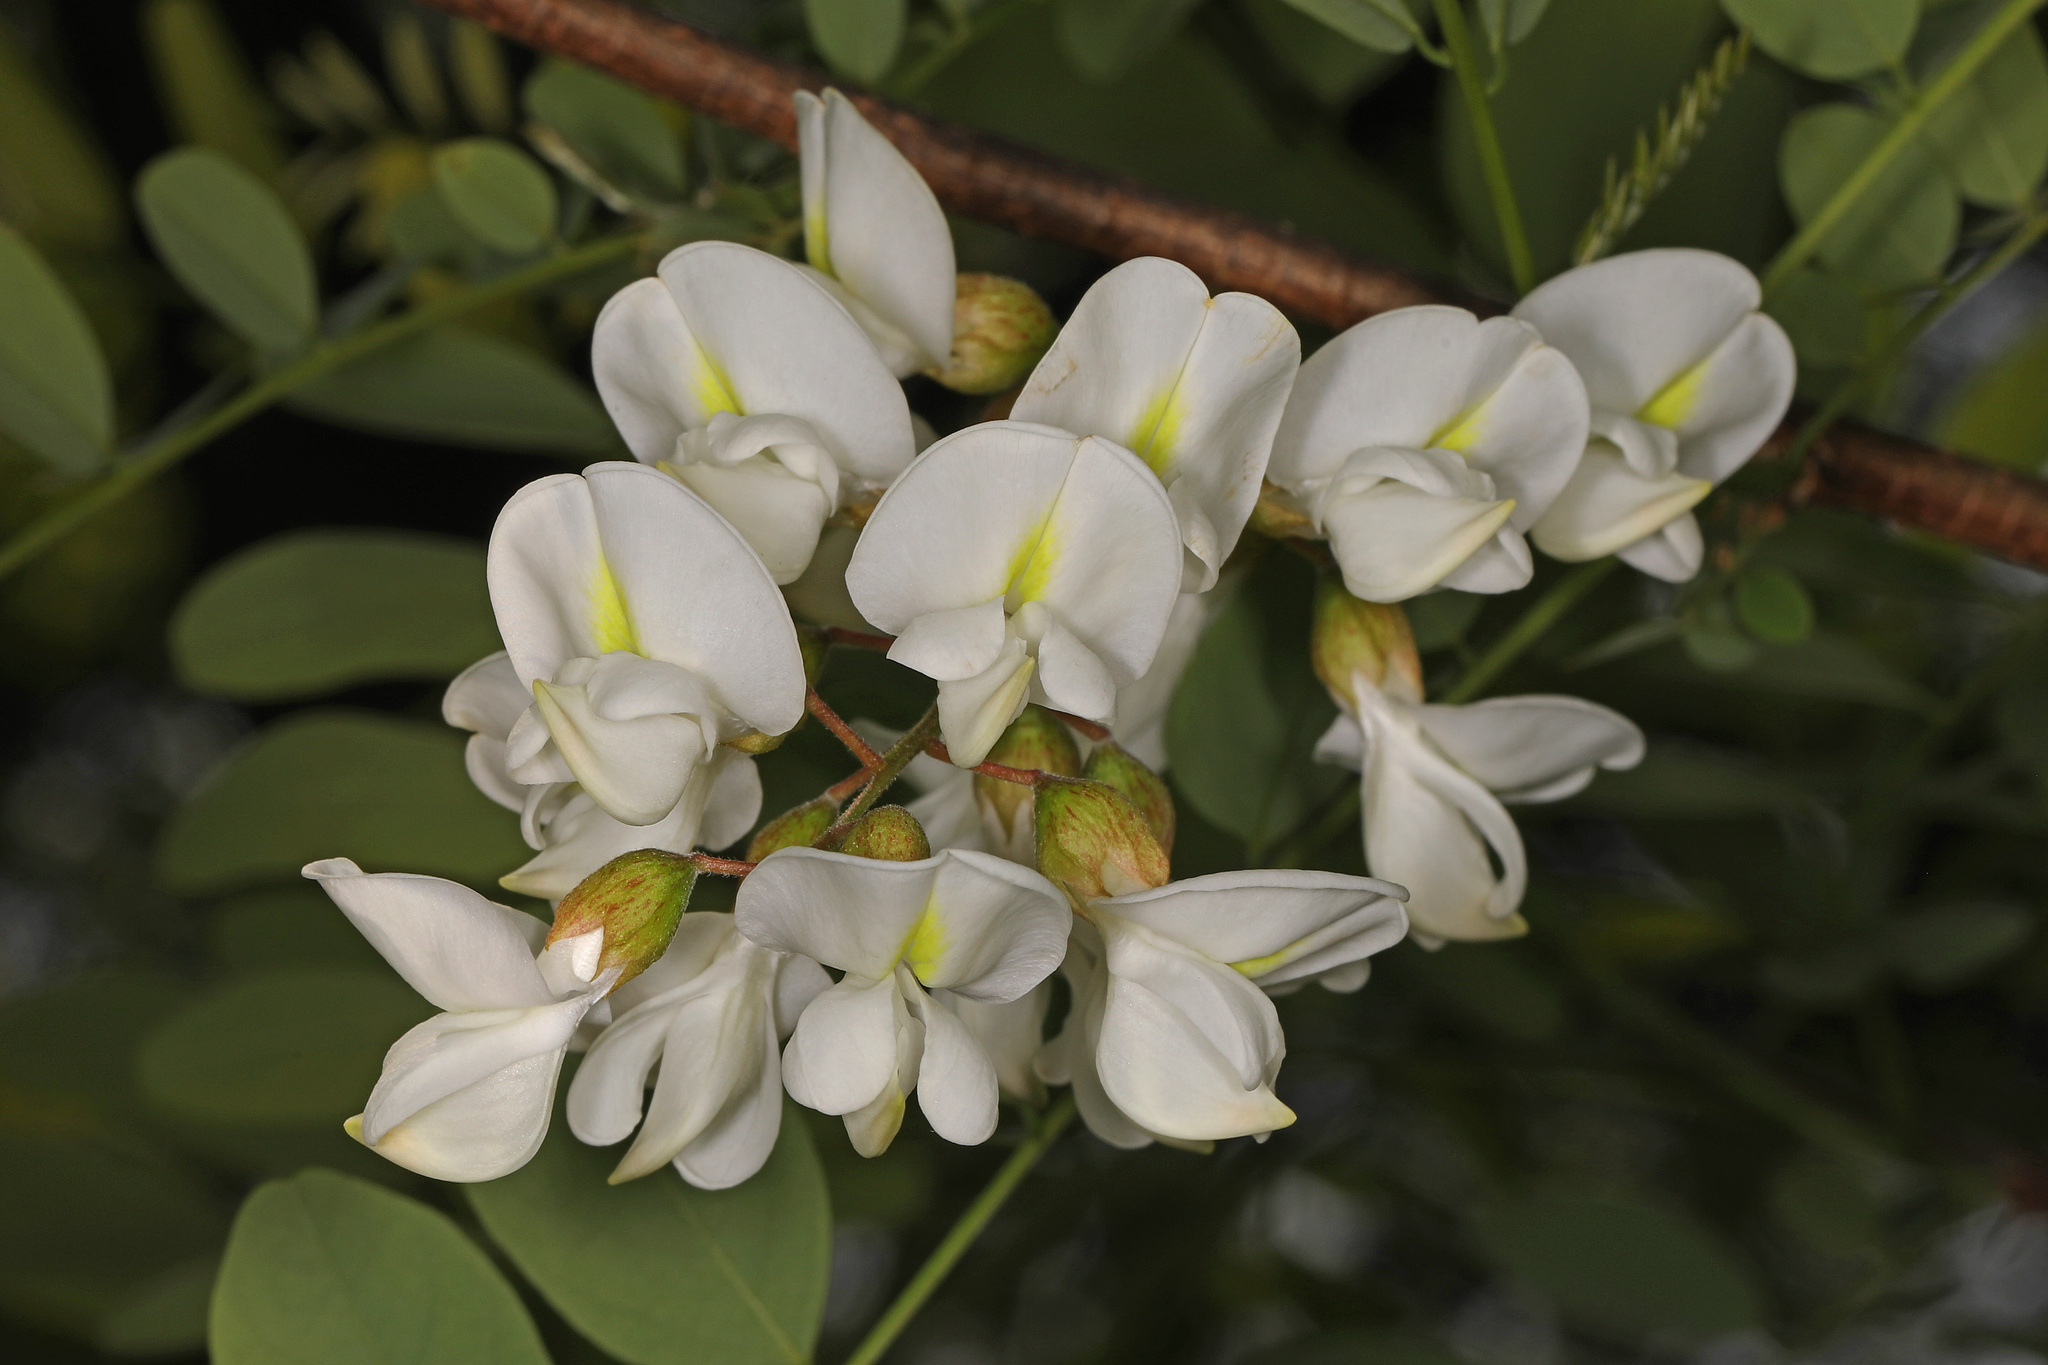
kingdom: Plantae
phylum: Tracheophyta
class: Magnoliopsida
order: Fabales
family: Fabaceae
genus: Robinia
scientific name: Robinia pseudoacacia
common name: Black locust
